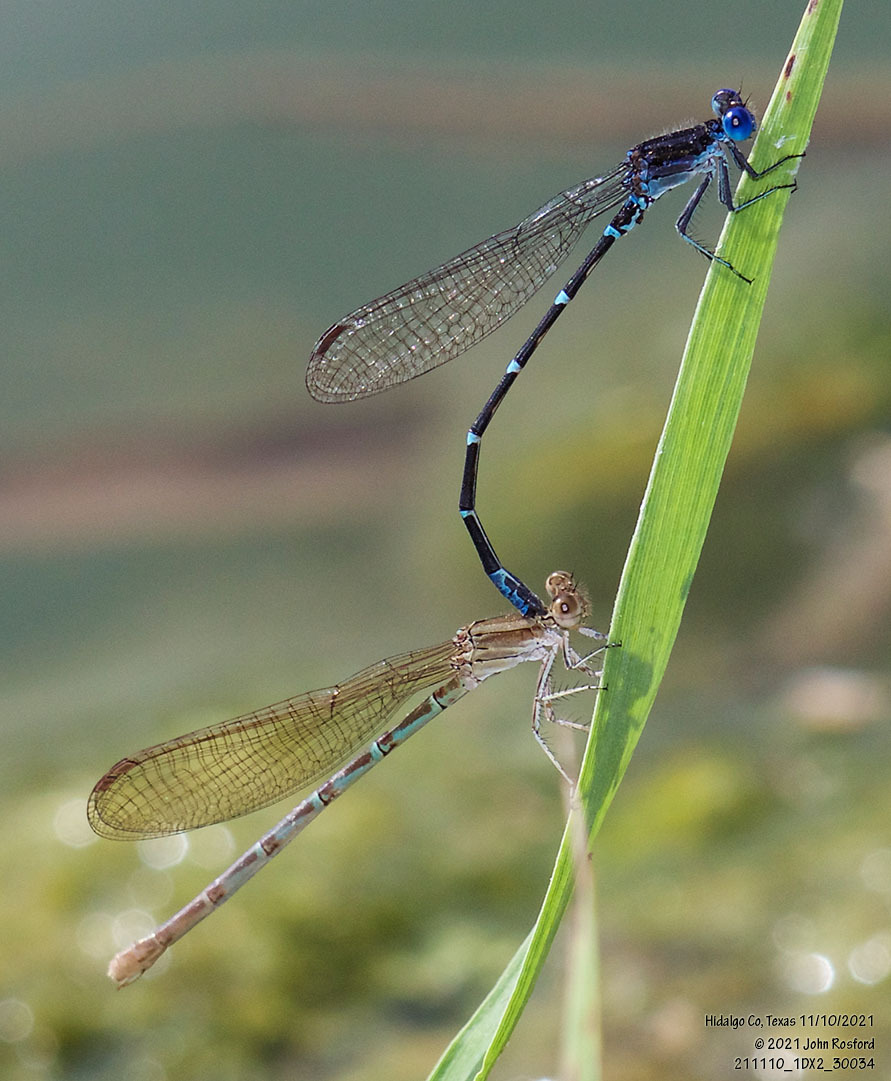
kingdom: Animalia
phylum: Arthropoda
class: Insecta
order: Odonata
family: Coenagrionidae
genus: Argia
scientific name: Argia sedula
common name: Blue-ringed dancer
